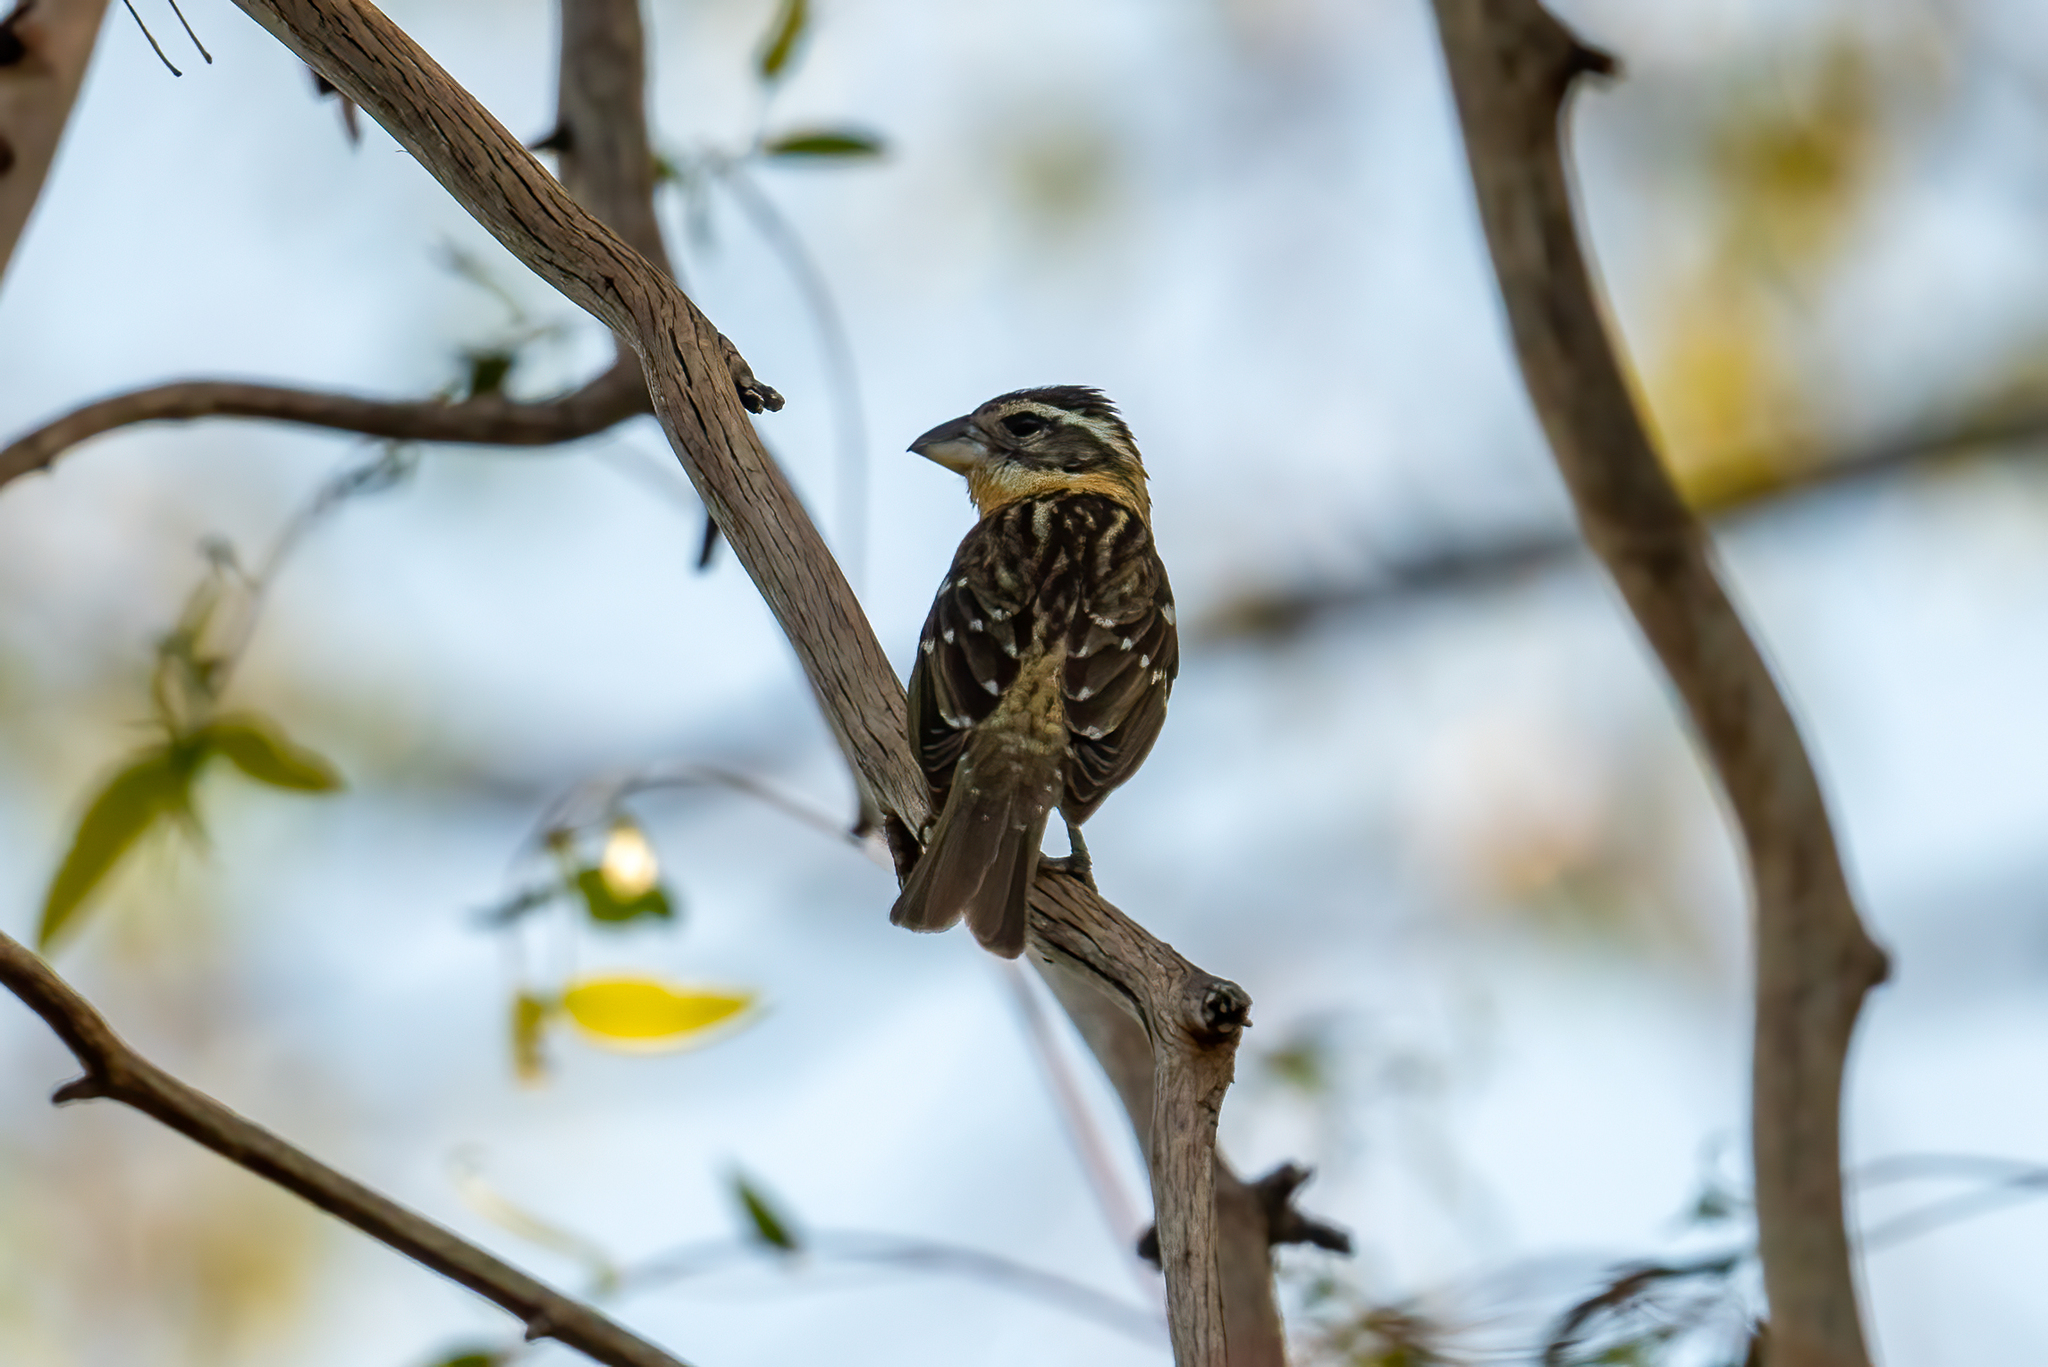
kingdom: Animalia
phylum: Chordata
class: Aves
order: Passeriformes
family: Cardinalidae
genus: Pheucticus
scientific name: Pheucticus melanocephalus
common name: Black-headed grosbeak
